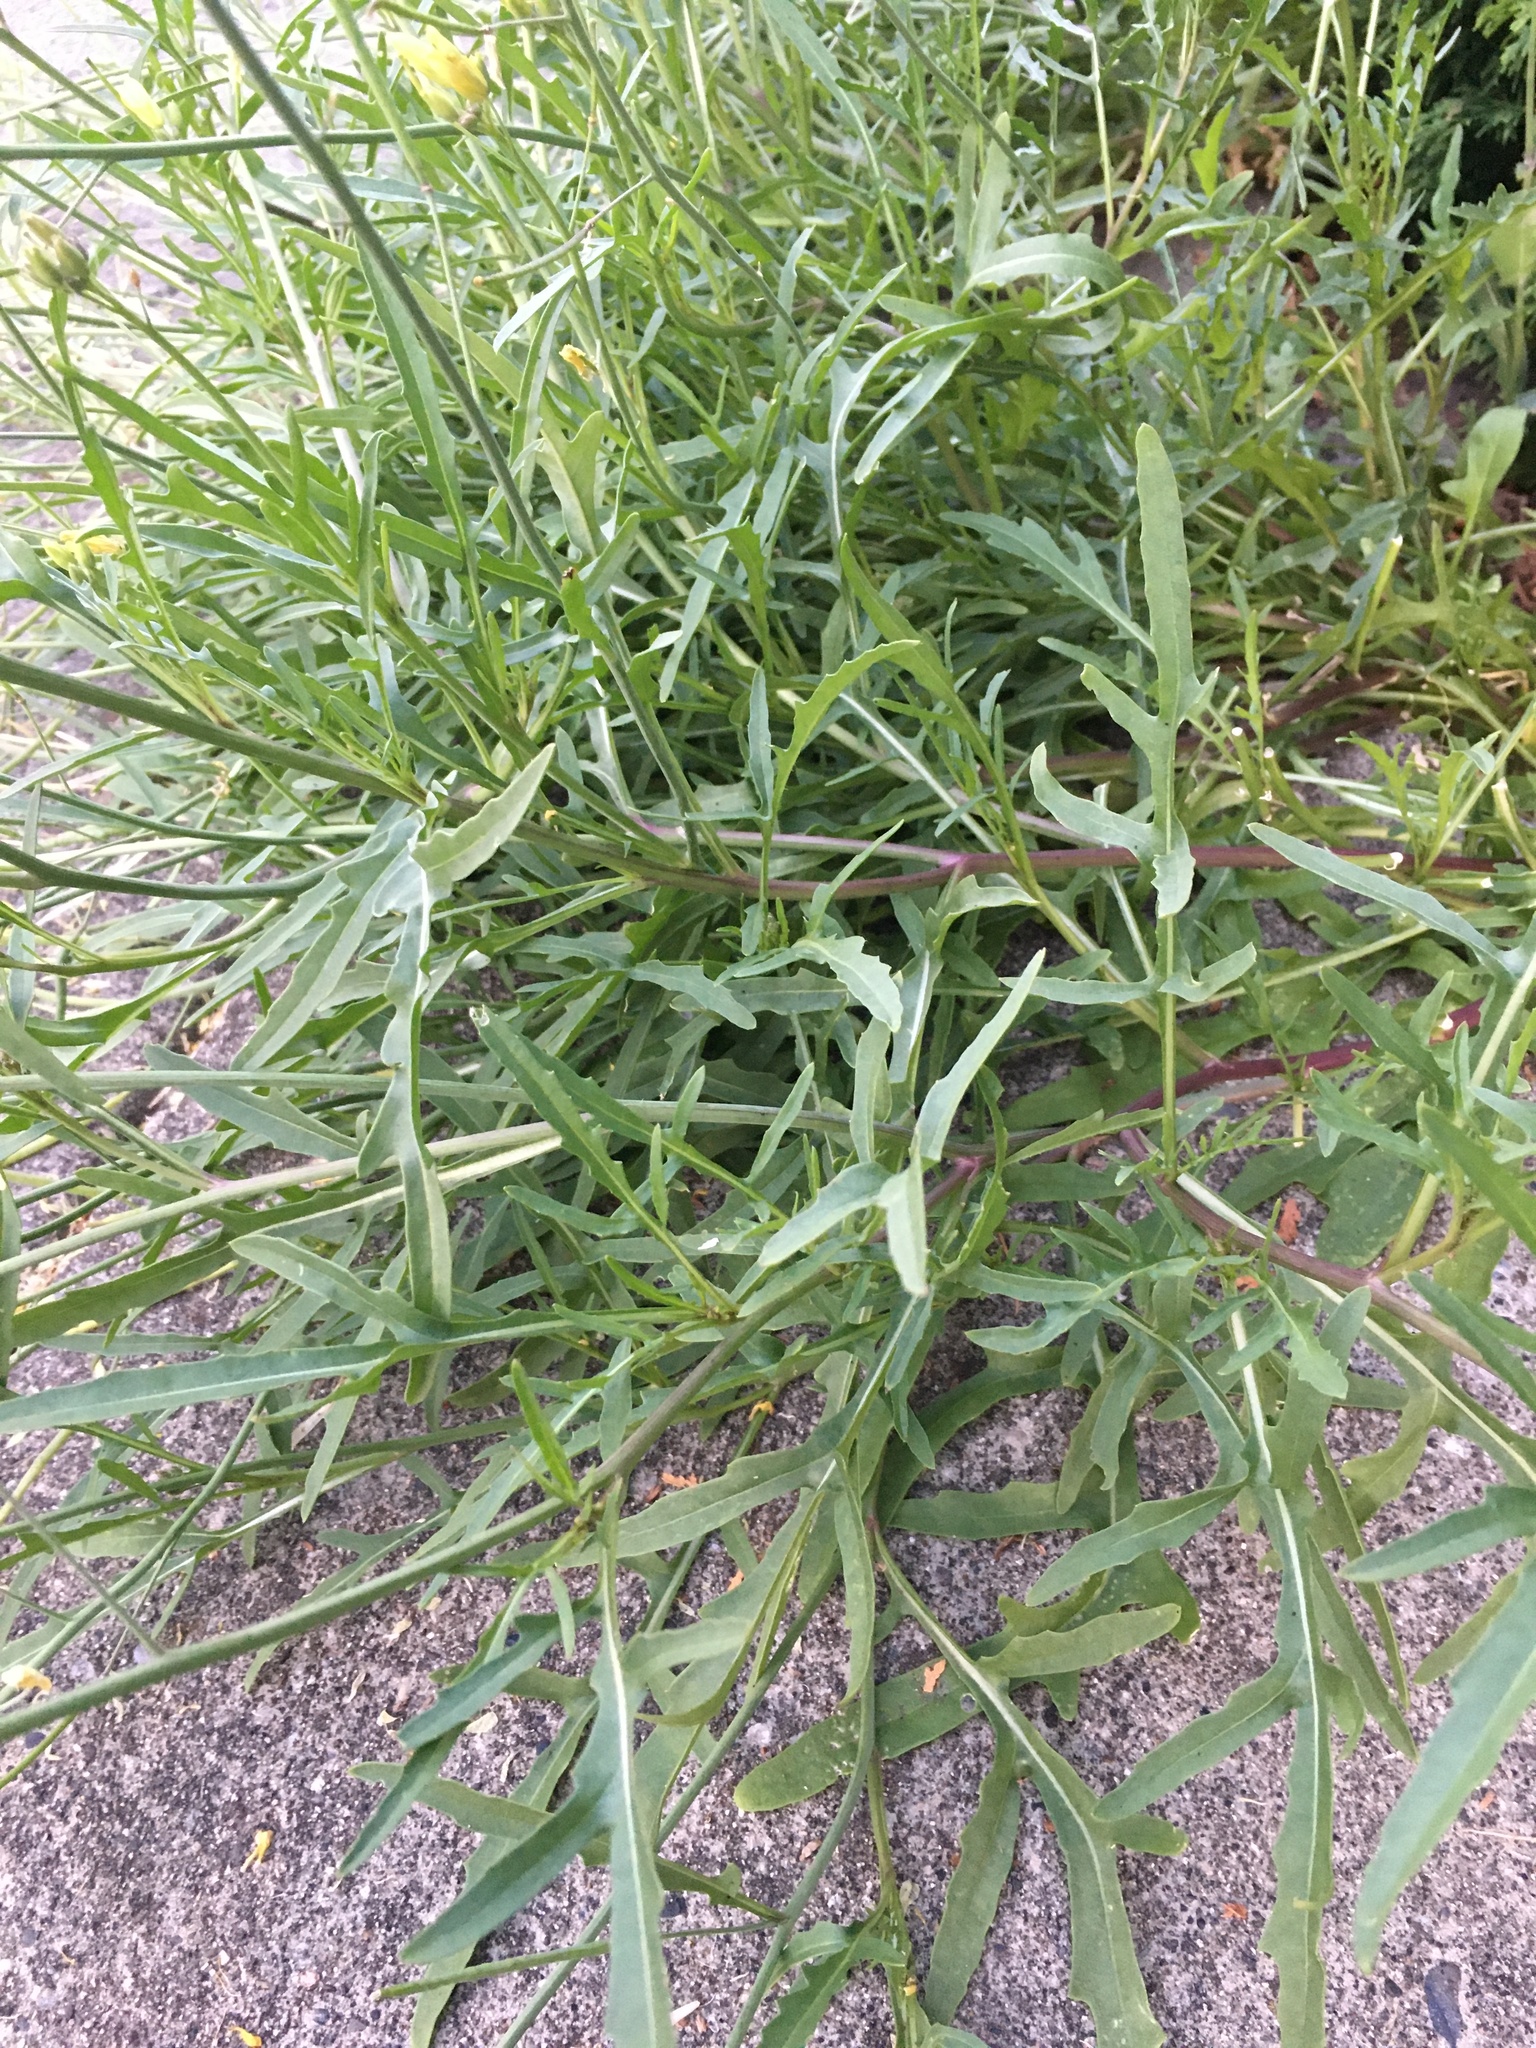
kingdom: Plantae
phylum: Tracheophyta
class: Magnoliopsida
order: Brassicales
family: Brassicaceae
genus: Diplotaxis
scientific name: Diplotaxis tenuifolia
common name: Perennial wall-rocket
